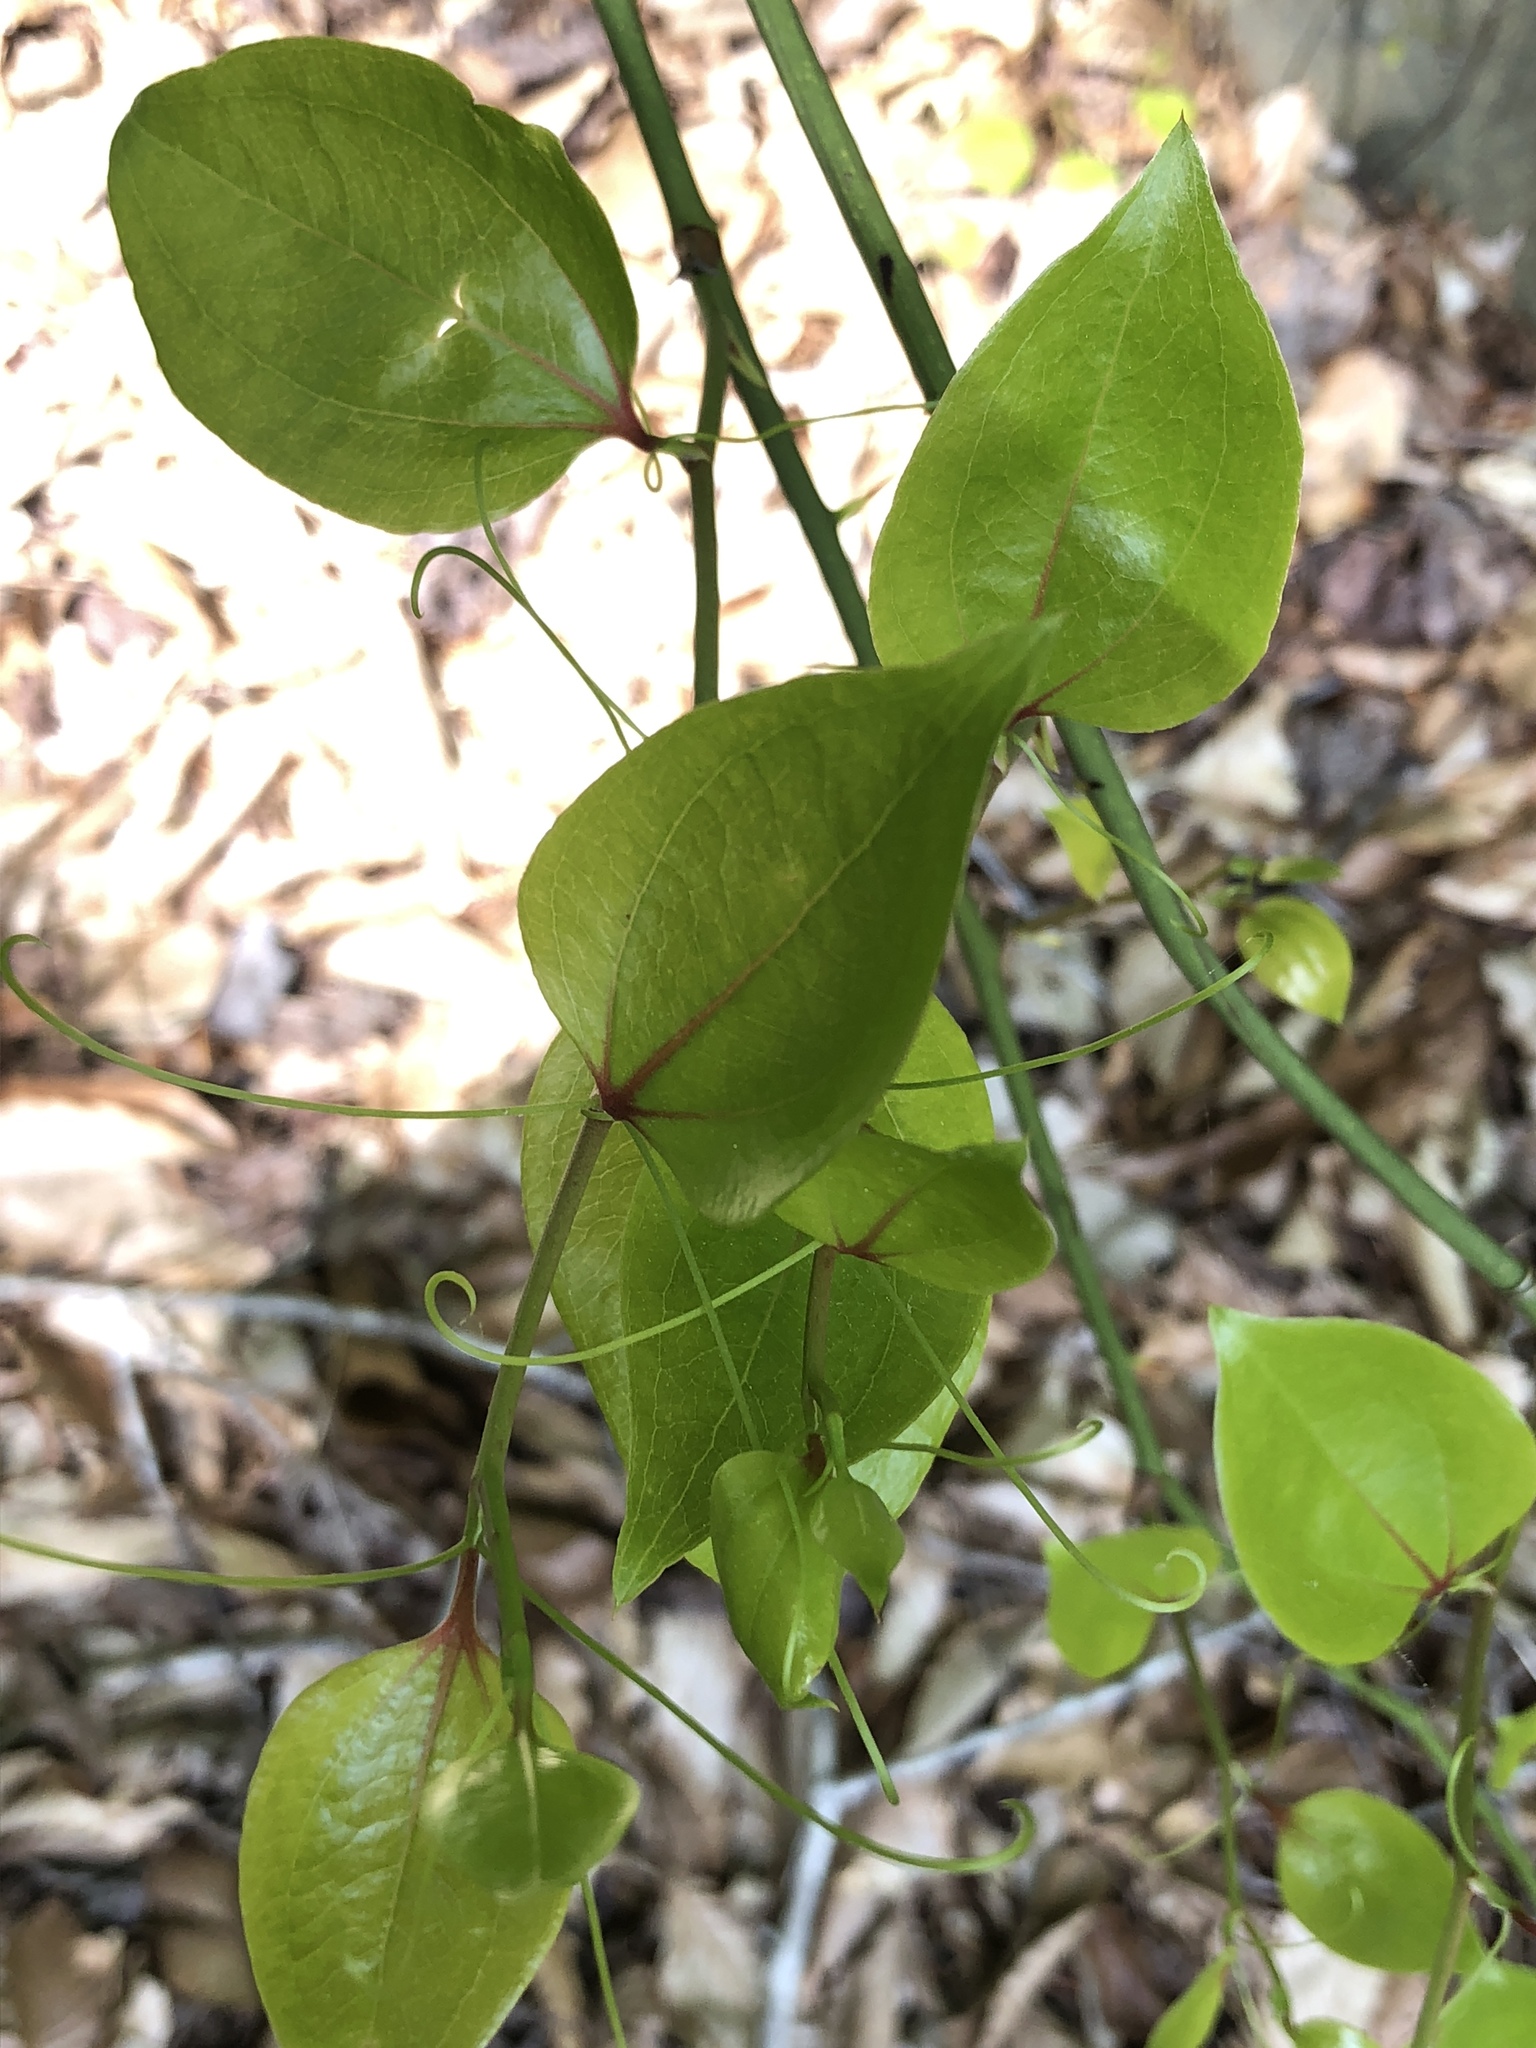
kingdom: Plantae
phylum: Tracheophyta
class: Liliopsida
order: Liliales
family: Smilacaceae
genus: Smilax
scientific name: Smilax rotundifolia
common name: Bullbriar
